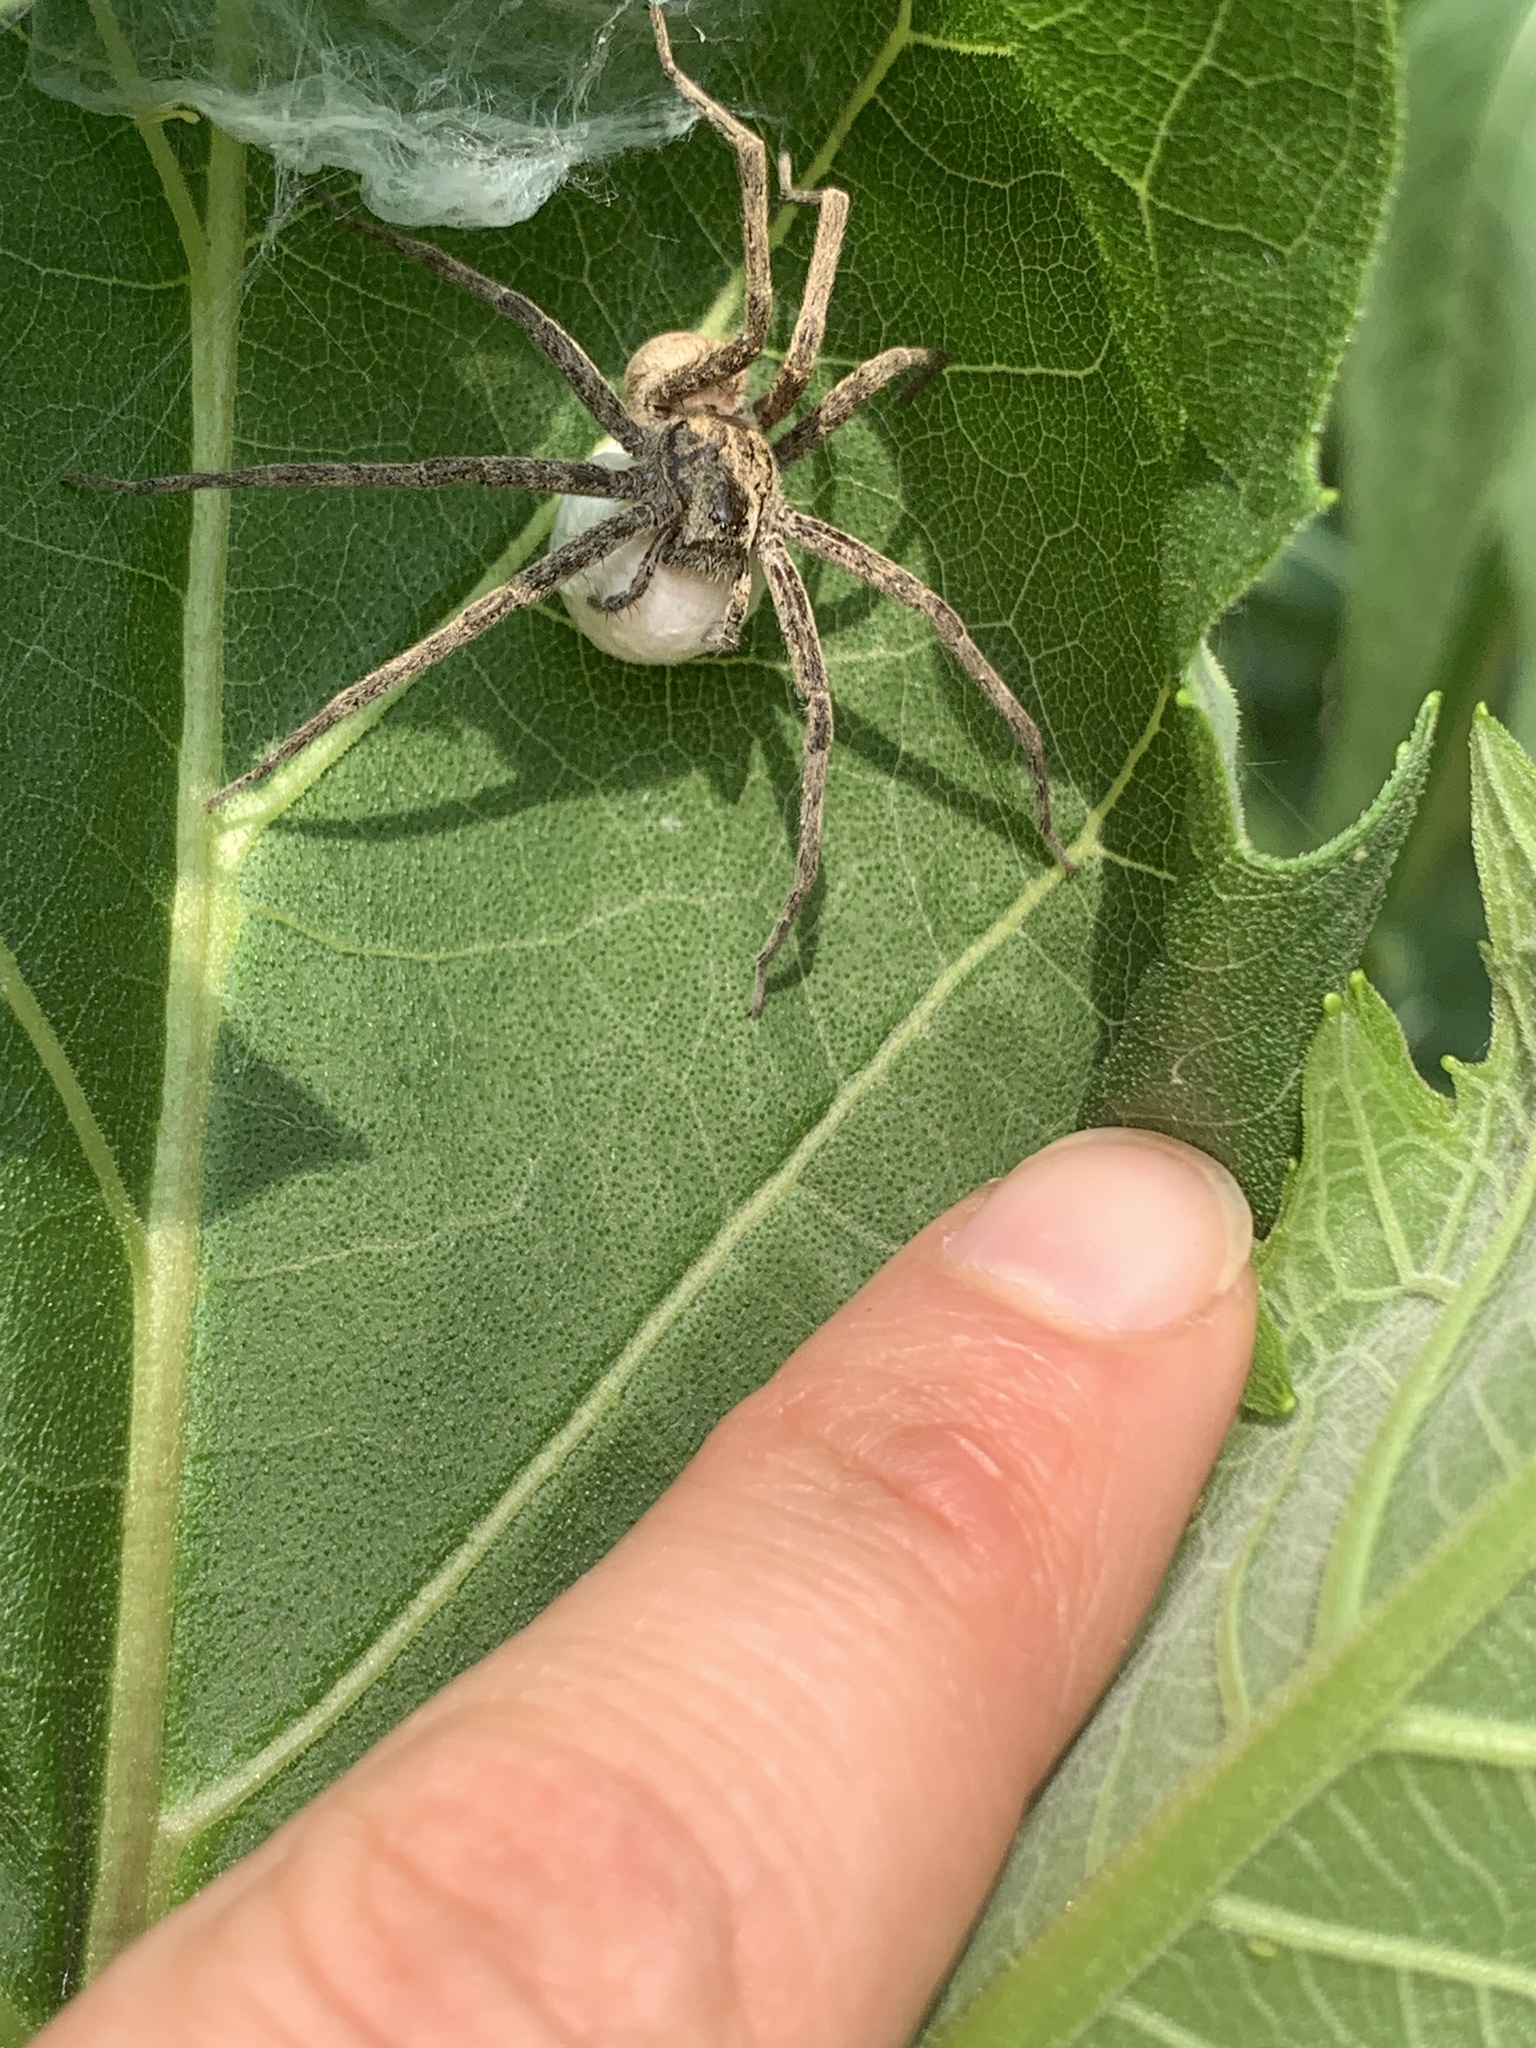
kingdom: Animalia
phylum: Arthropoda
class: Arachnida
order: Araneae
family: Pisauridae
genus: Pisaurina
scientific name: Pisaurina mira
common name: American nursery web spider
